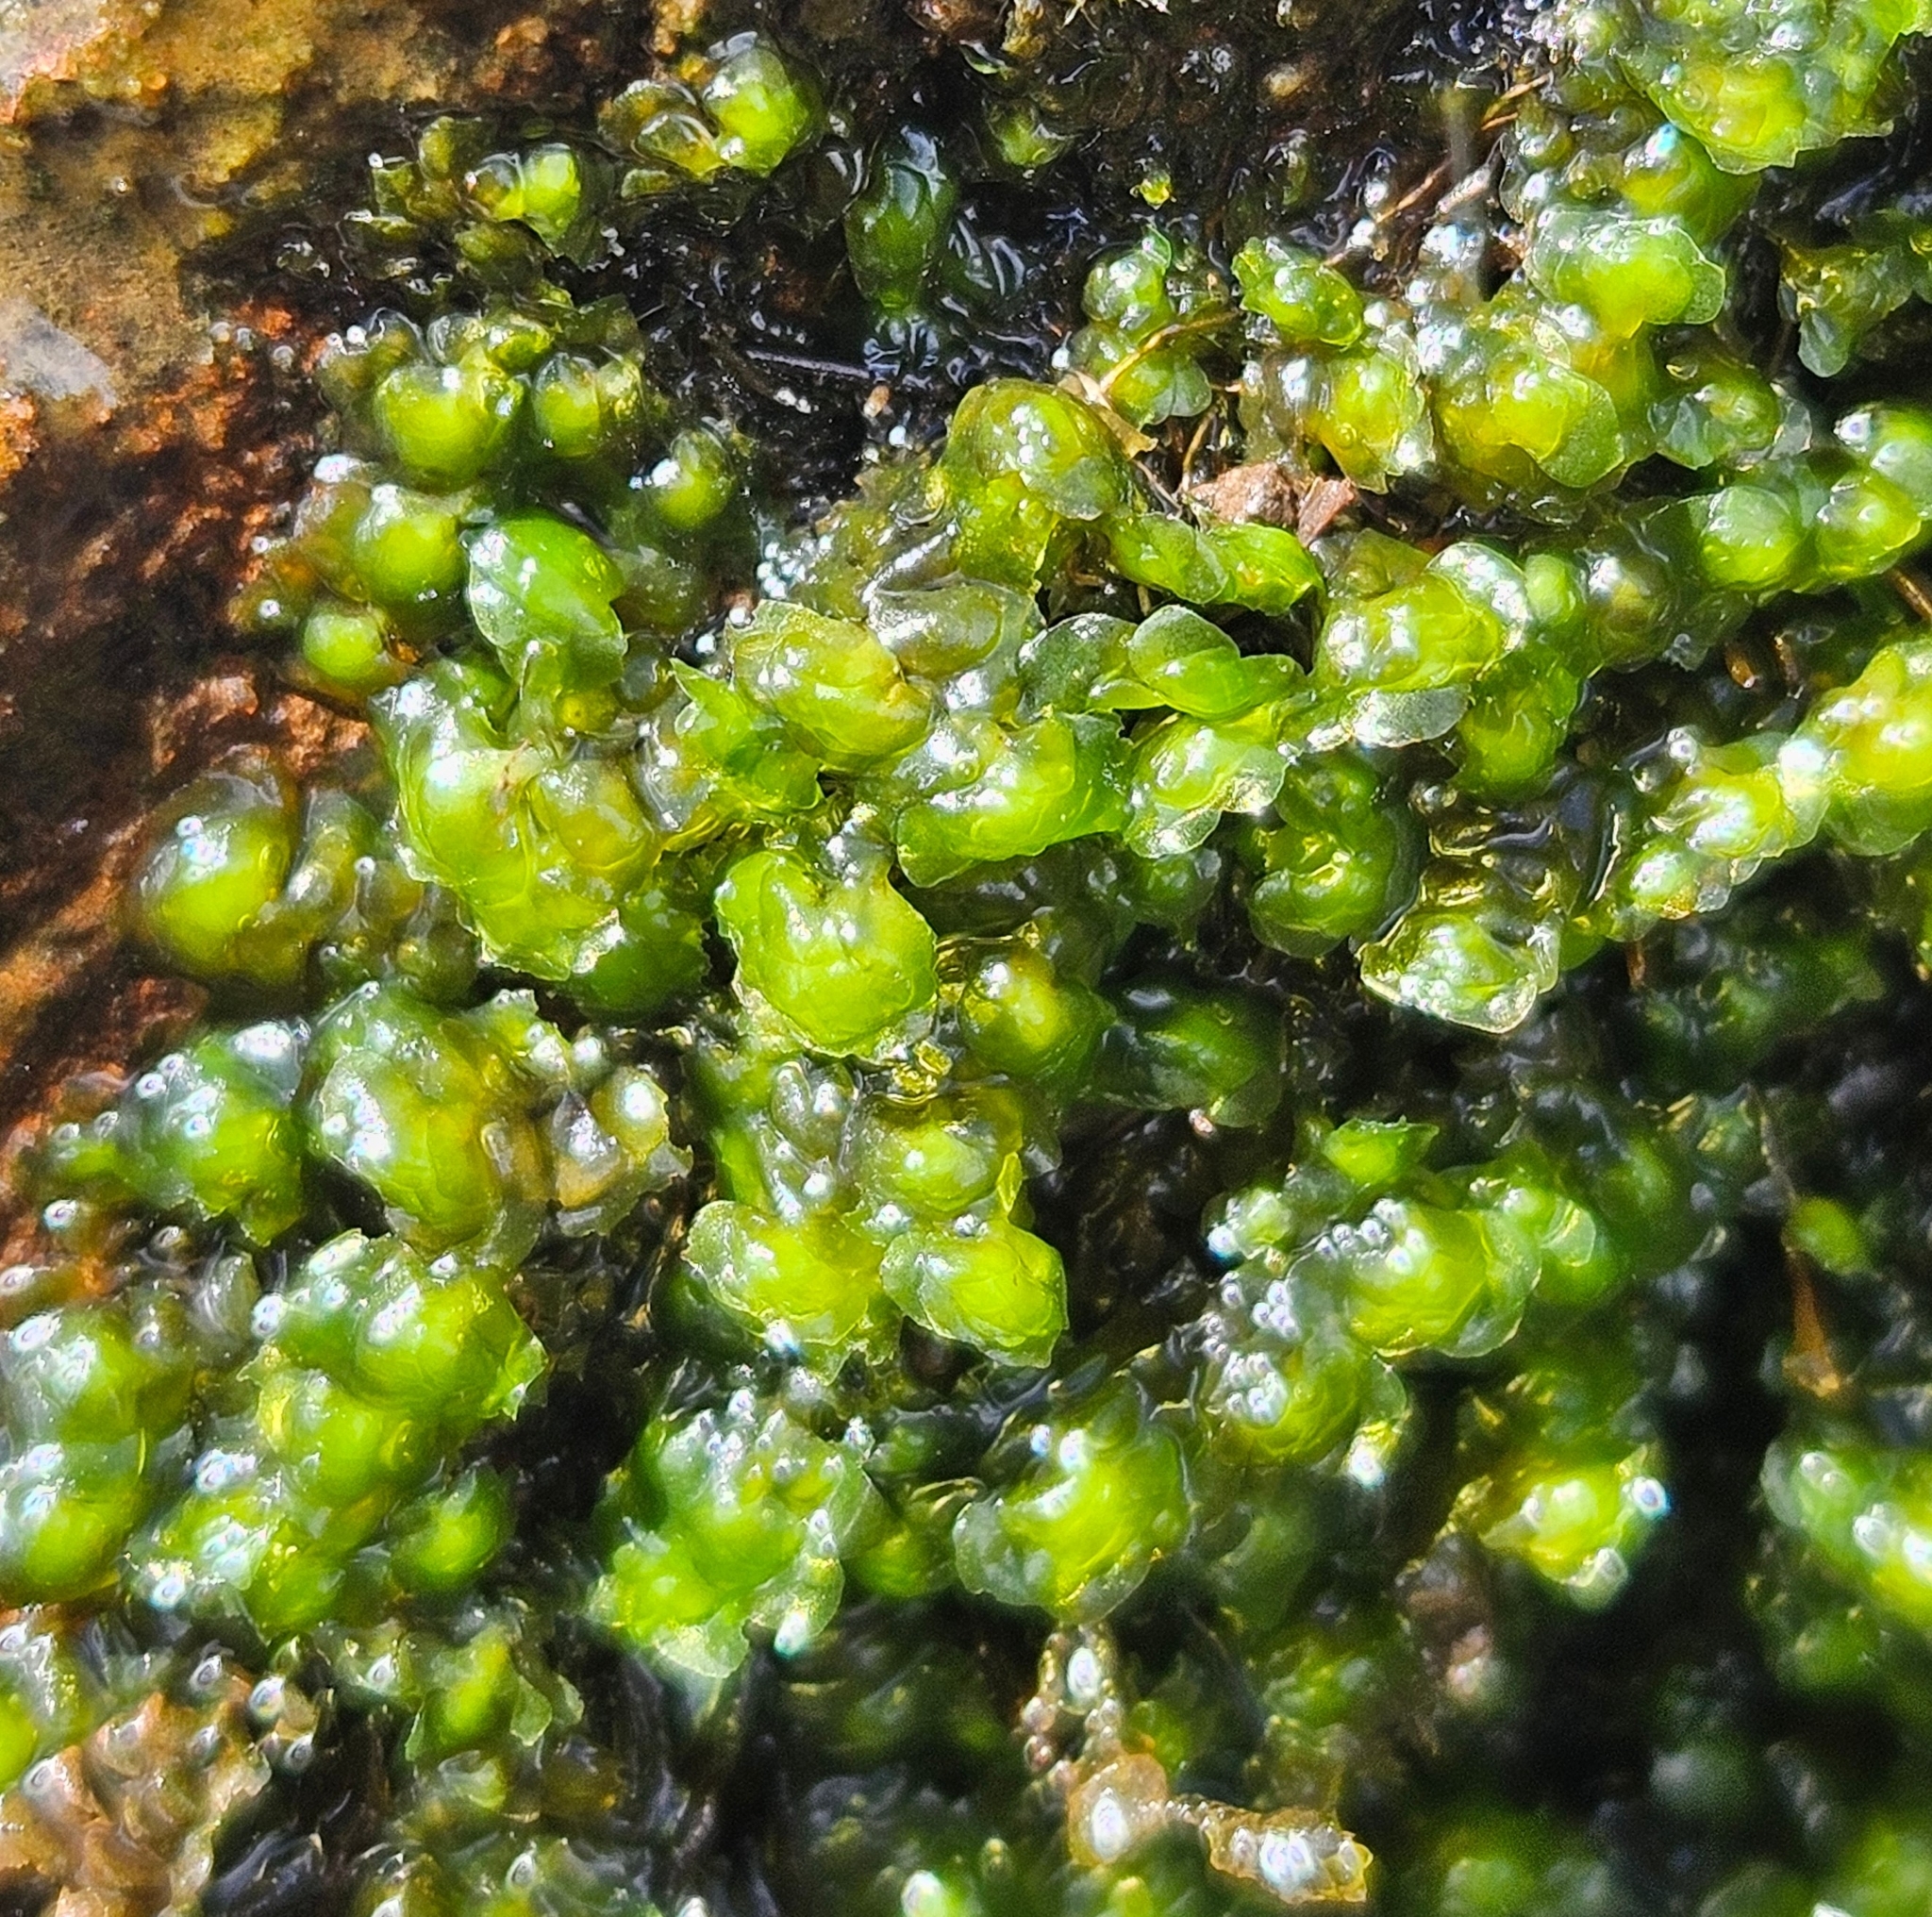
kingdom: Plantae
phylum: Marchantiophyta
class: Jungermanniopsida
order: Jungermanniales
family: Scapaniaceae
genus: Scapania
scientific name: Scapania undulata
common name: Water earwort
